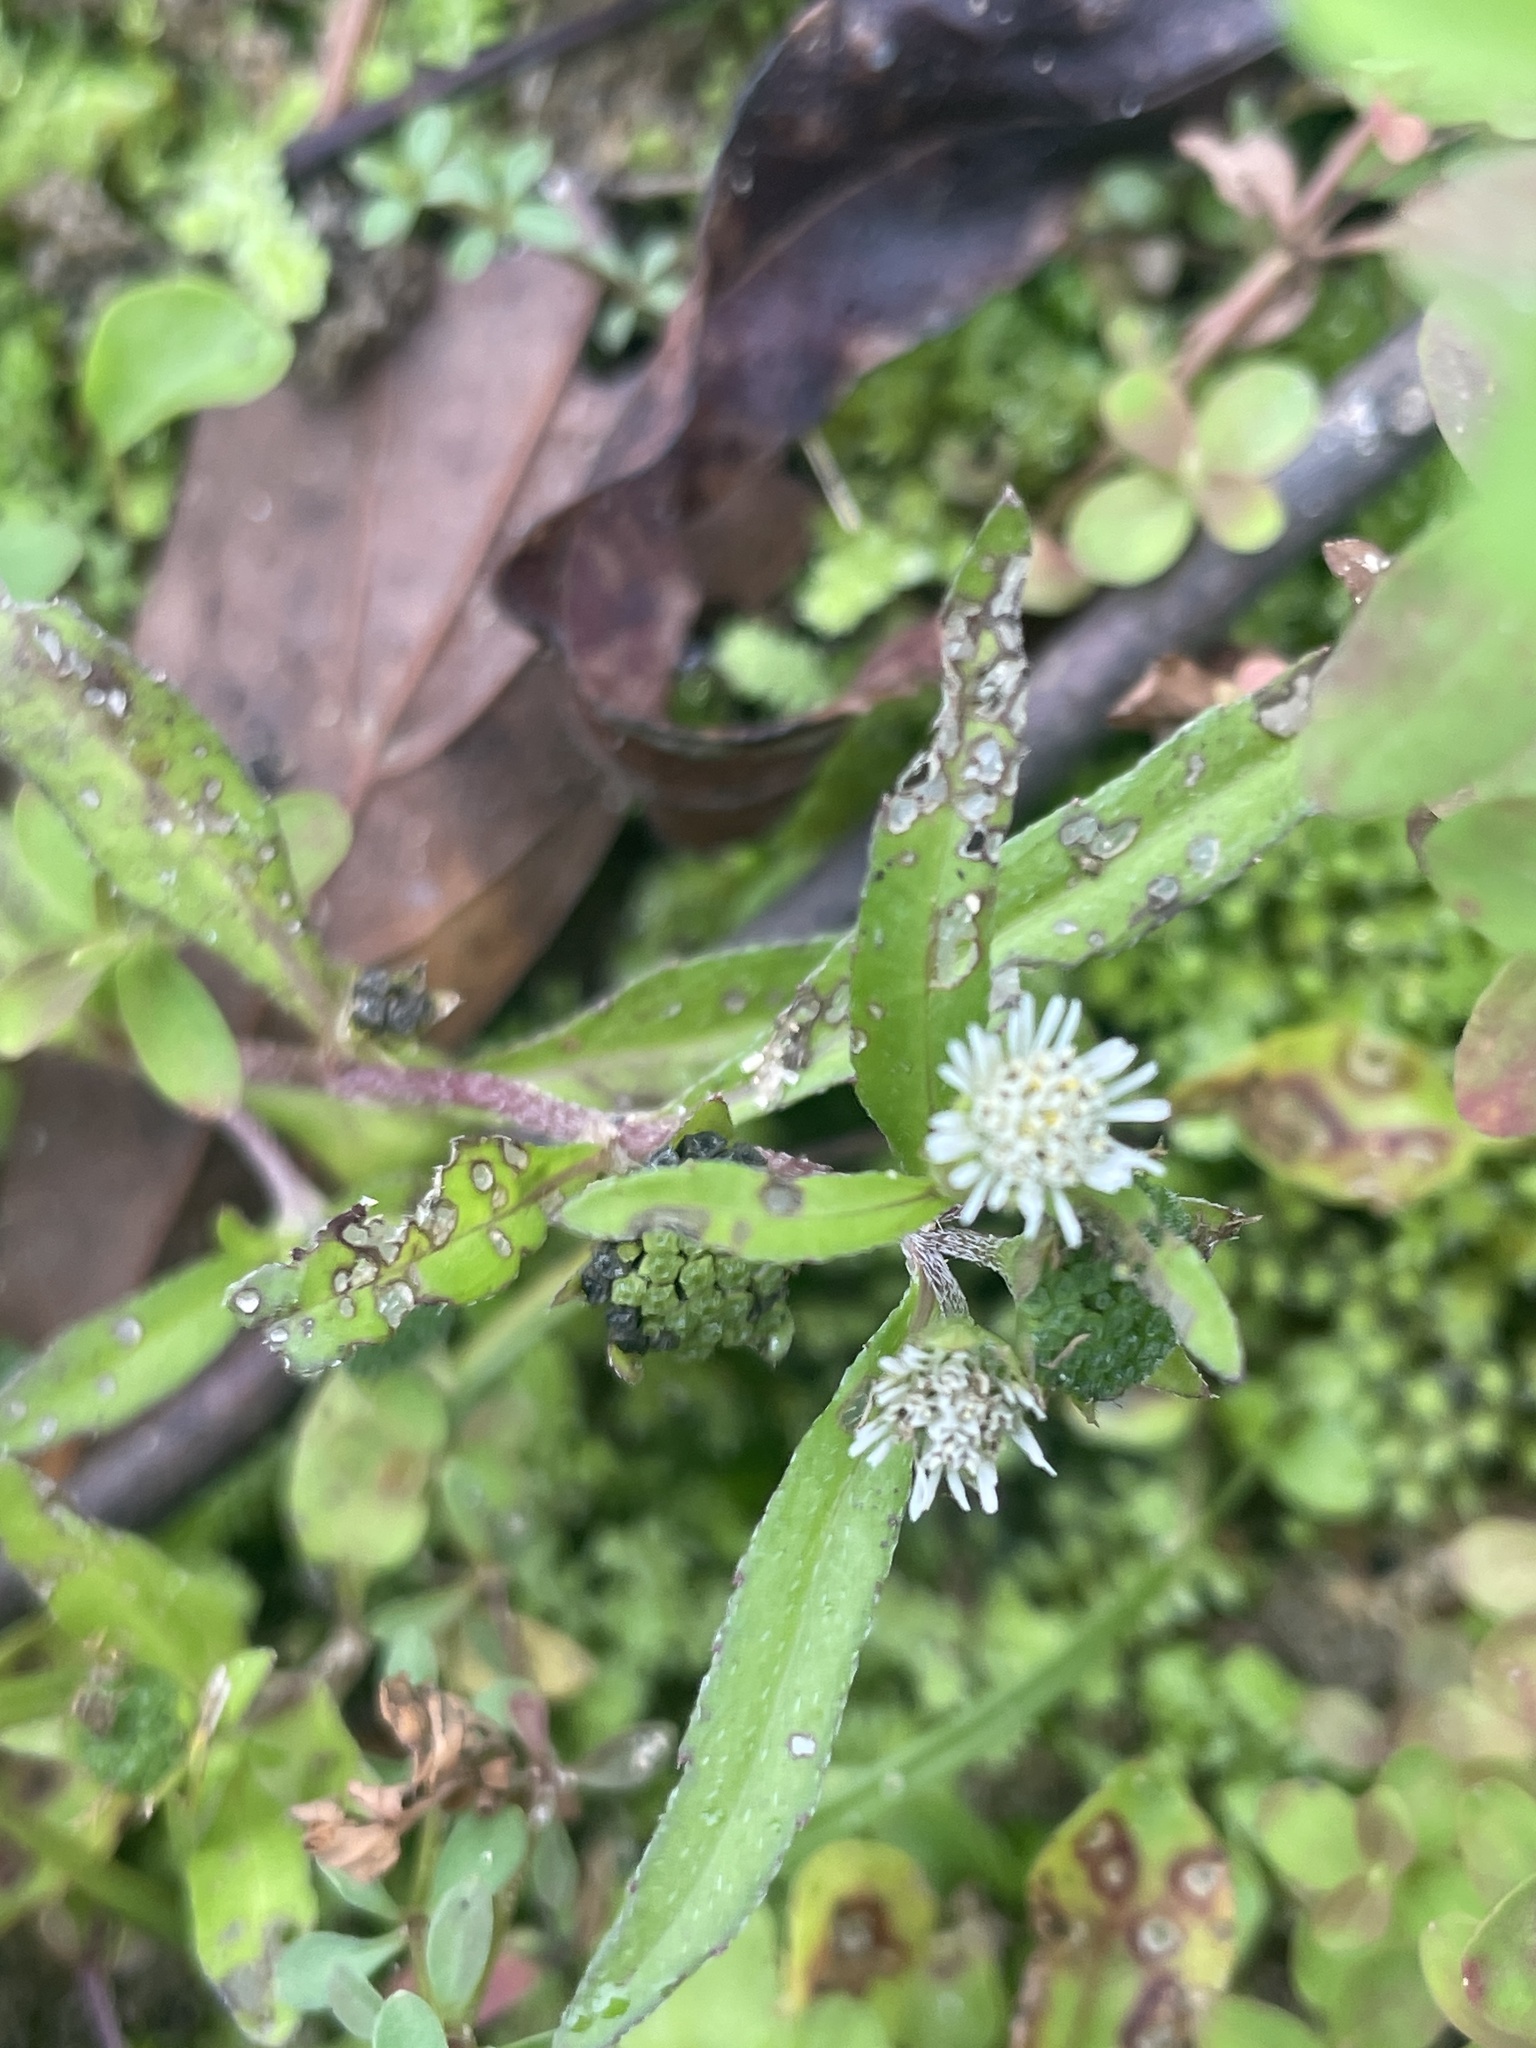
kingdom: Plantae
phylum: Tracheophyta
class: Magnoliopsida
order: Asterales
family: Asteraceae
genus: Eclipta
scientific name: Eclipta prostrata
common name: False daisy
